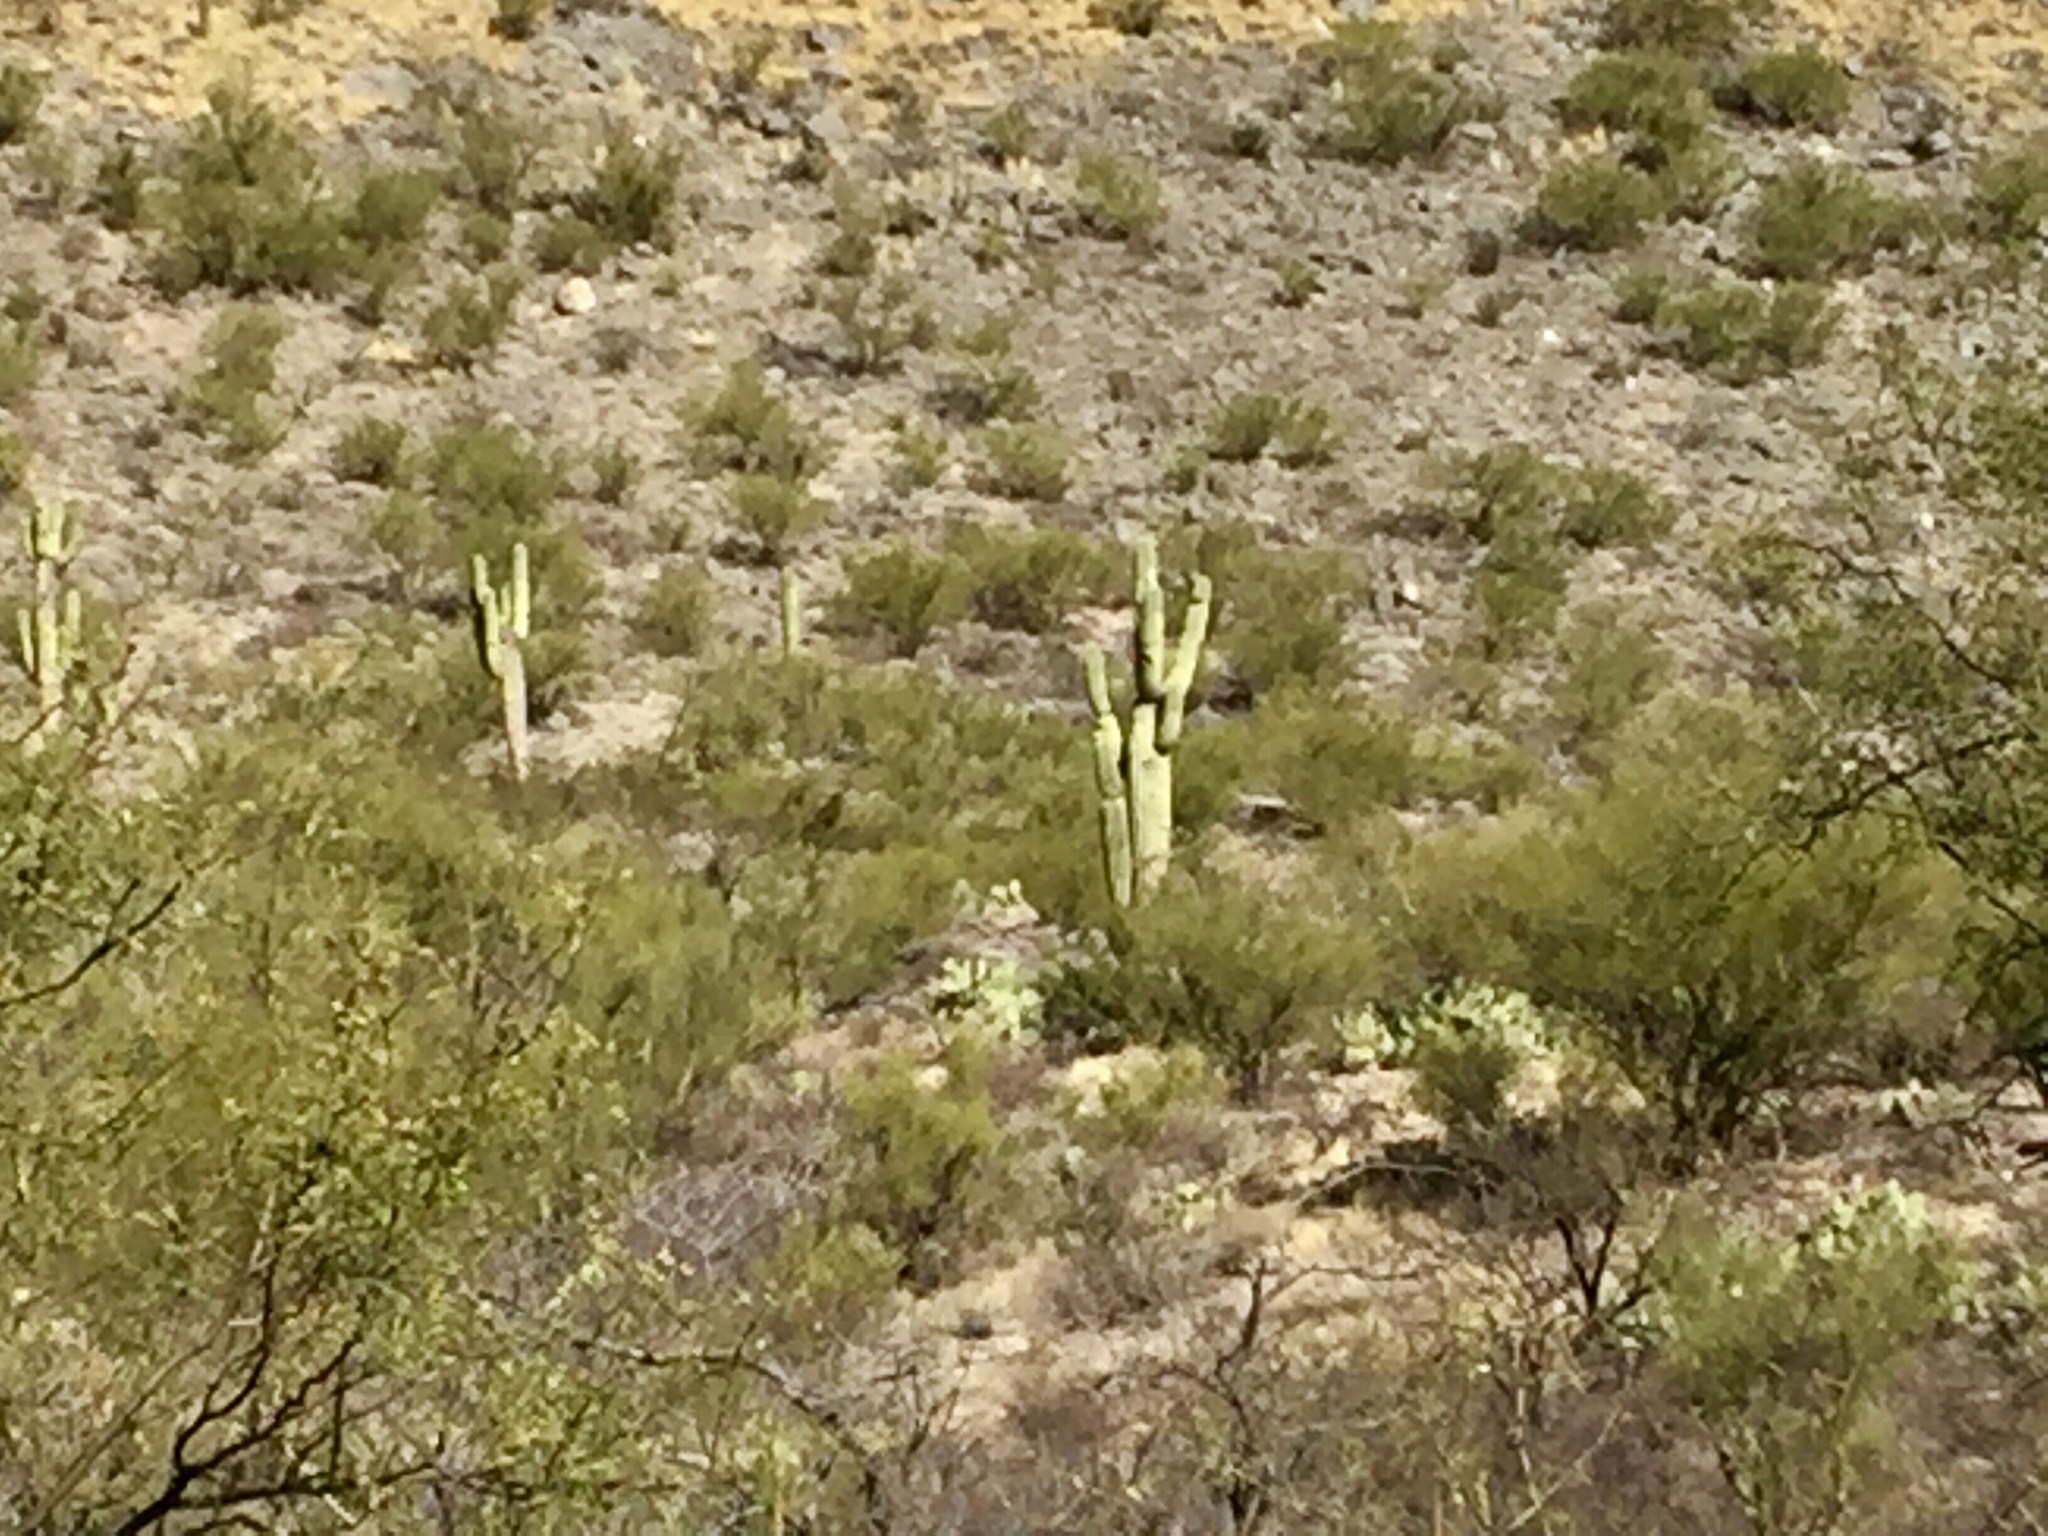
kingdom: Plantae
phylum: Tracheophyta
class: Magnoliopsida
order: Caryophyllales
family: Cactaceae
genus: Carnegiea
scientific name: Carnegiea gigantea
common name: Saguaro
